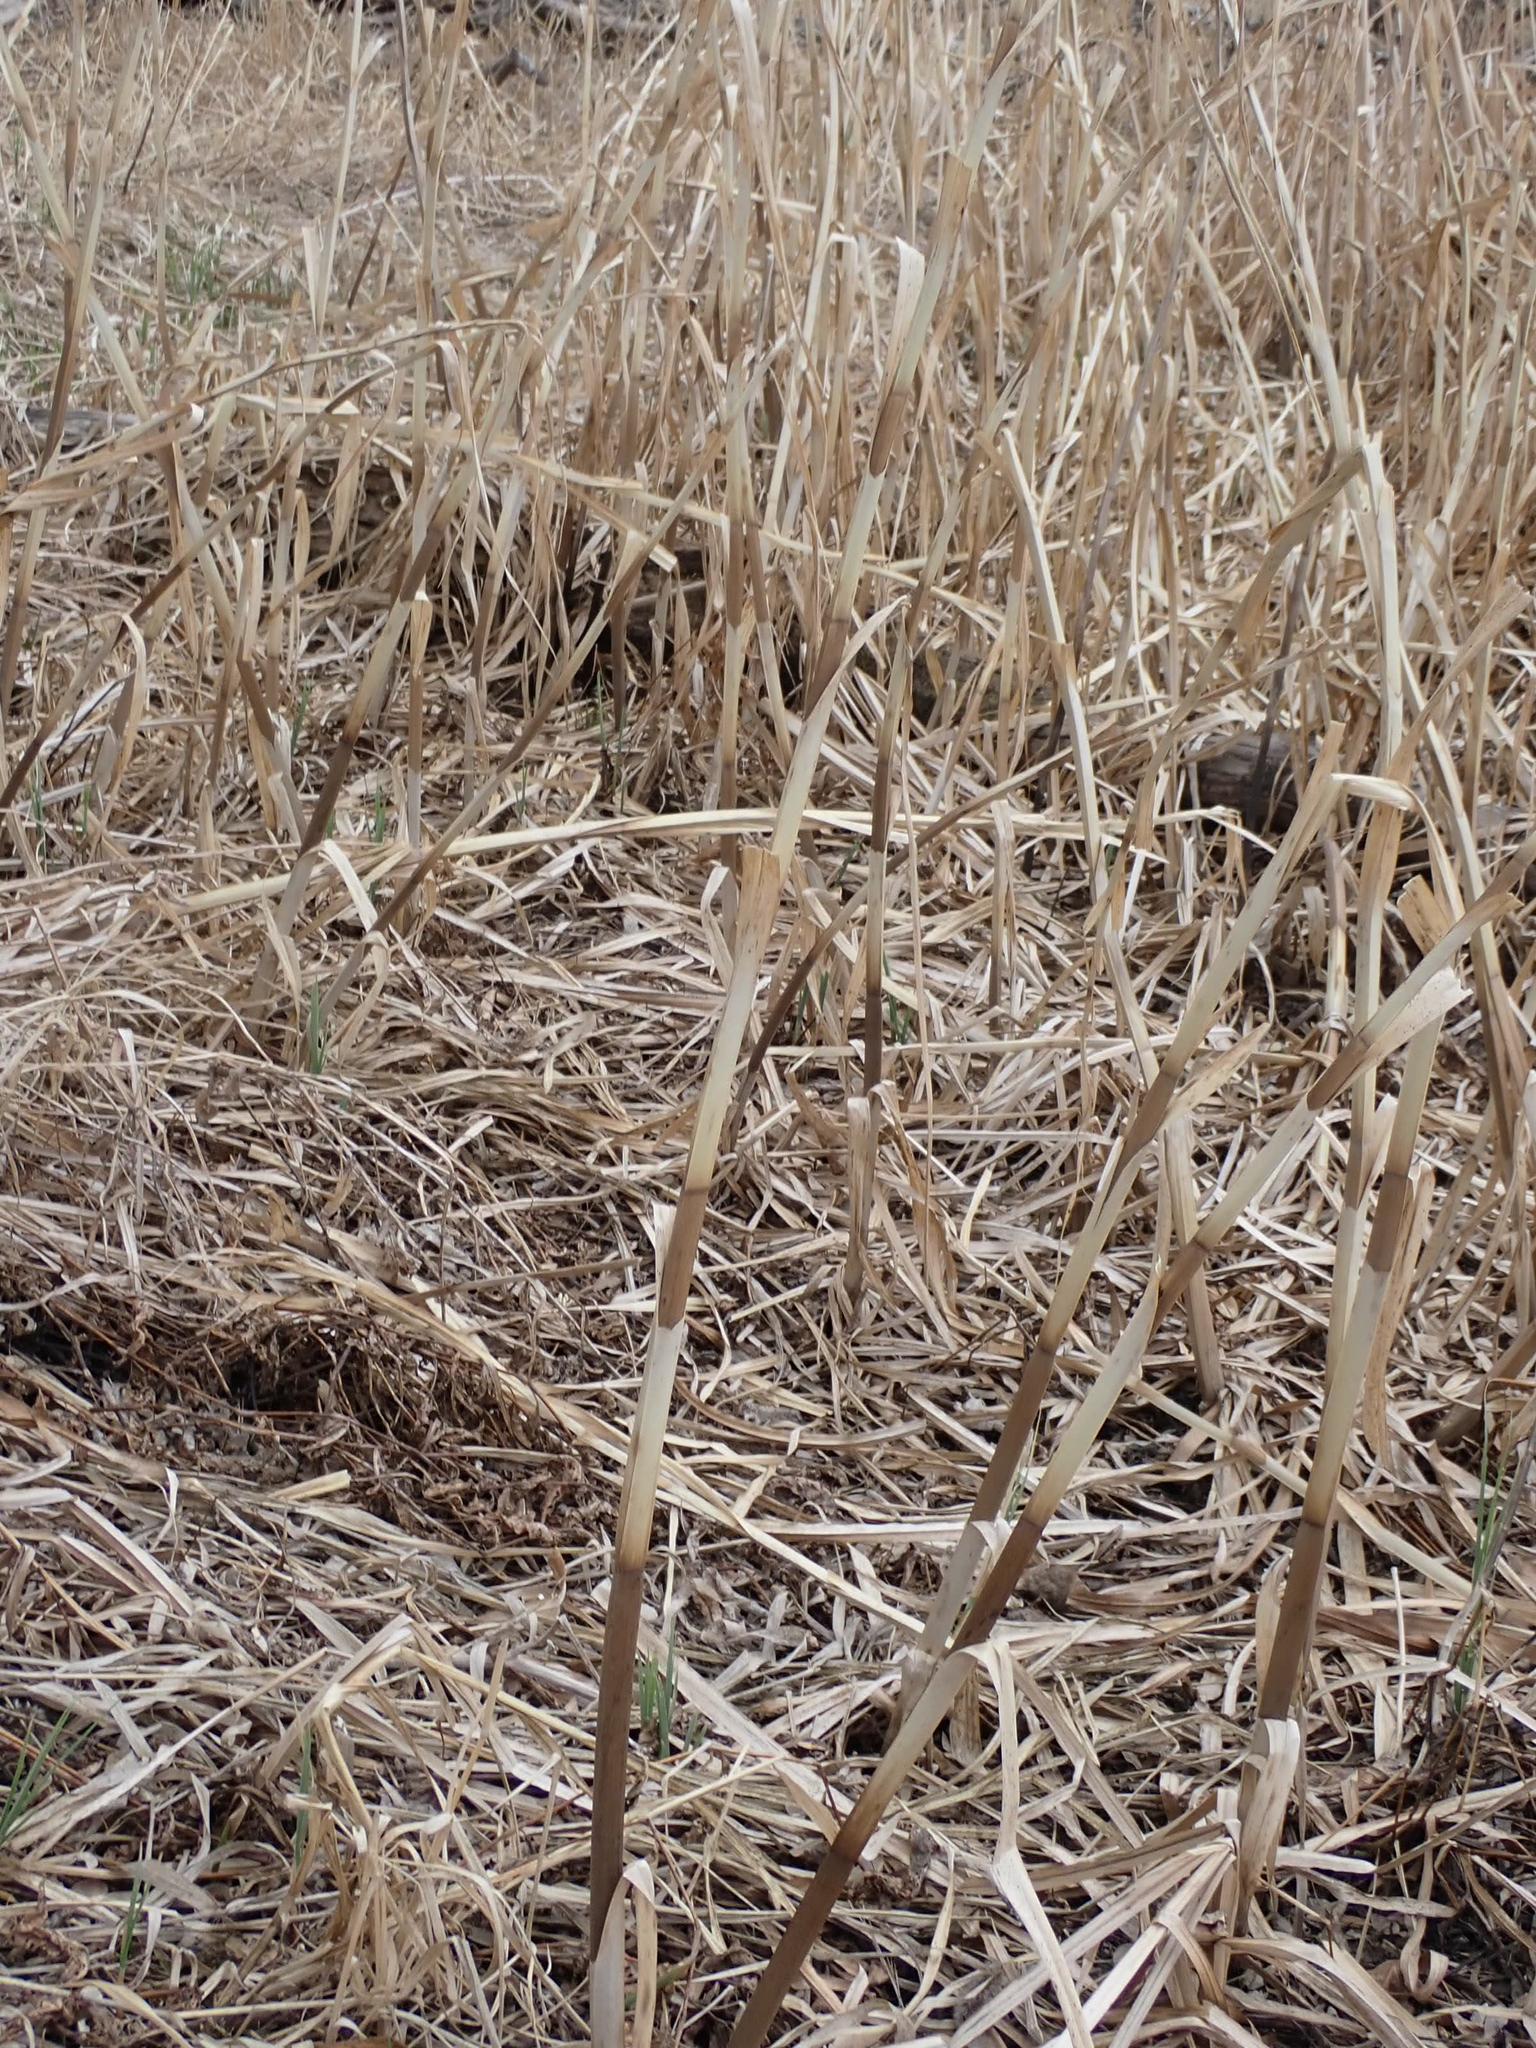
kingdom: Plantae
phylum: Tracheophyta
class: Liliopsida
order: Poales
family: Poaceae
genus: Phragmites
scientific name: Phragmites australis
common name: Common reed
